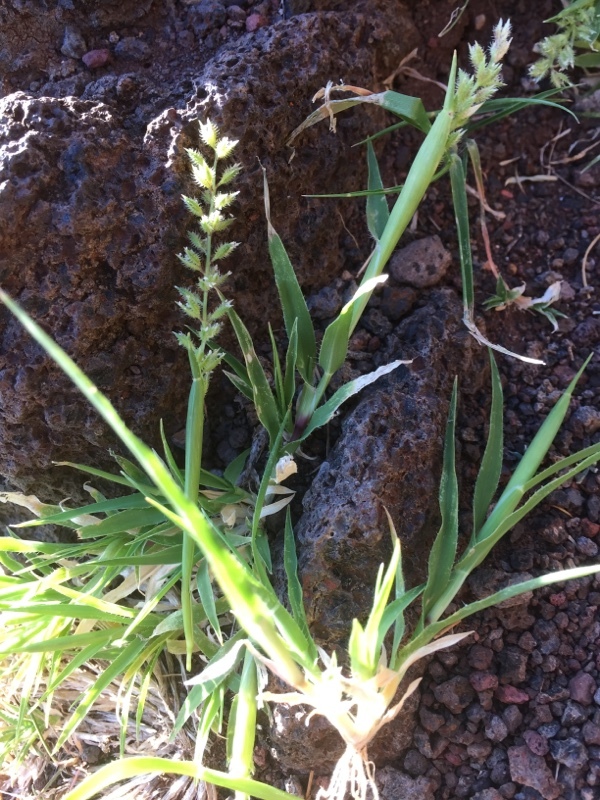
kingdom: Plantae
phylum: Tracheophyta
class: Liliopsida
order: Poales
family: Poaceae
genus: Tragus
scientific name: Tragus racemosus
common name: European bur-grass
